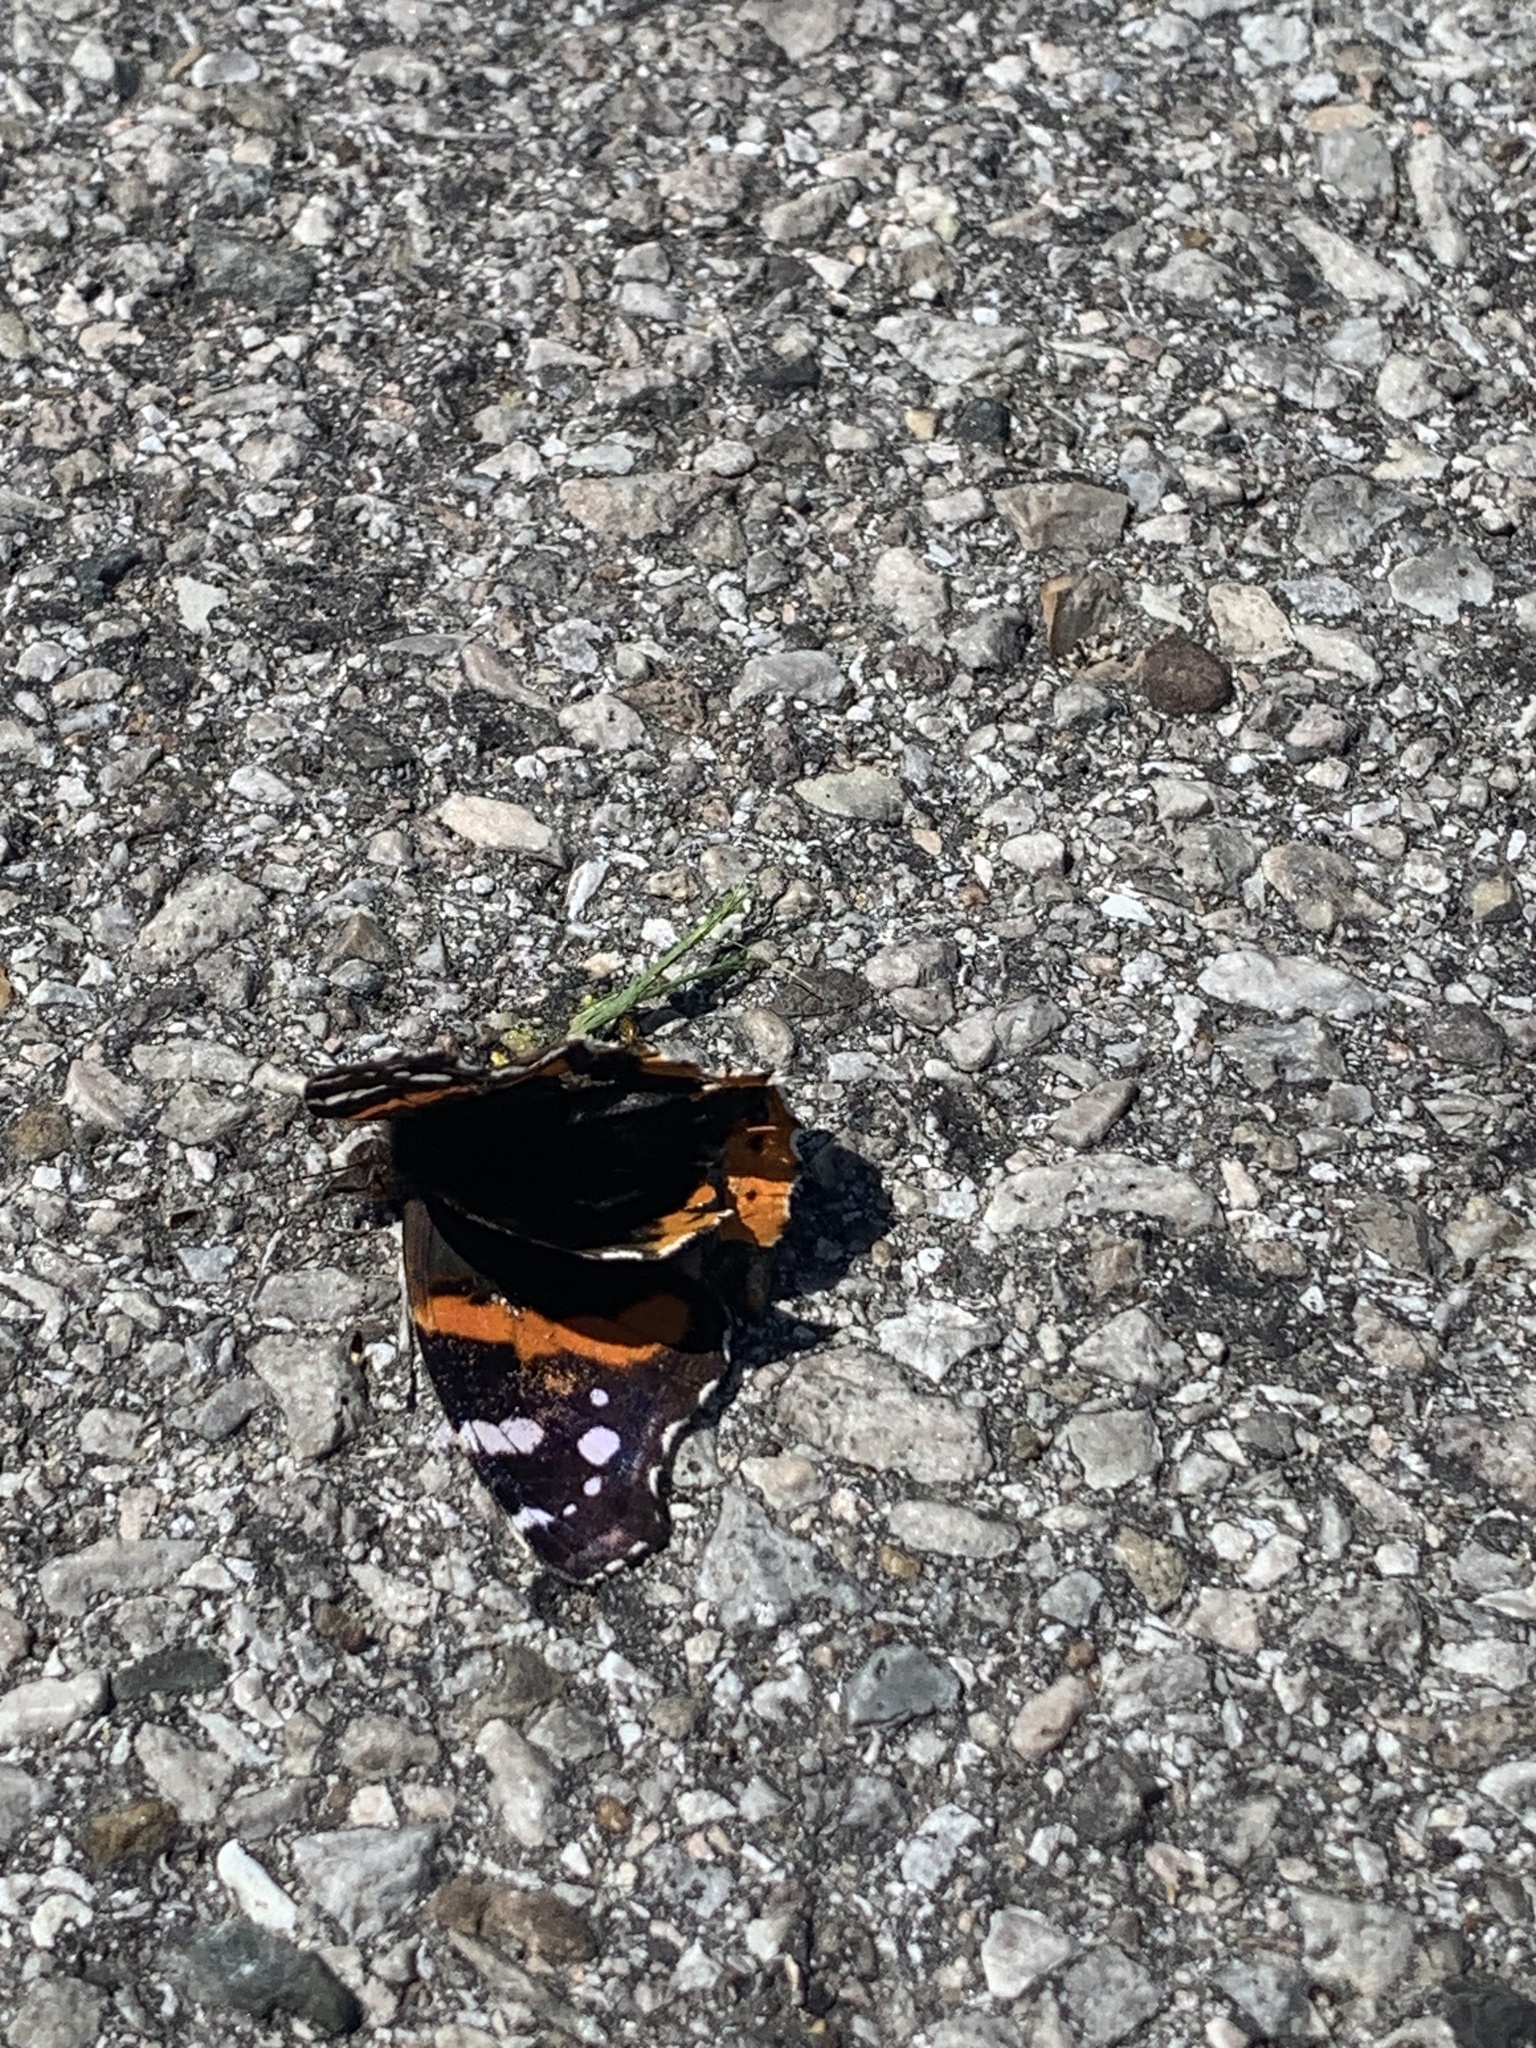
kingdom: Animalia
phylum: Arthropoda
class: Insecta
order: Lepidoptera
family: Nymphalidae
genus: Vanessa
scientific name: Vanessa atalanta
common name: Red admiral
